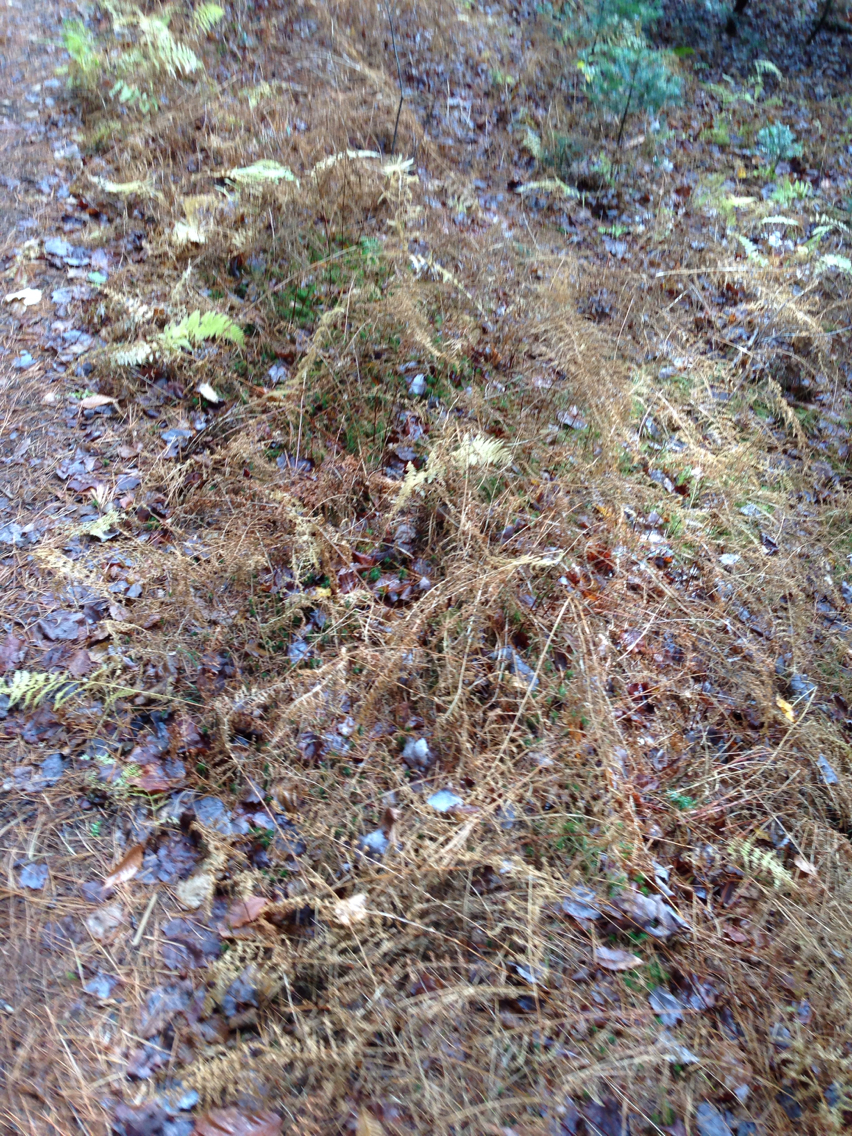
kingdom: Plantae
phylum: Tracheophyta
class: Polypodiopsida
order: Polypodiales
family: Dennstaedtiaceae
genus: Sitobolium
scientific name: Sitobolium punctilobum
